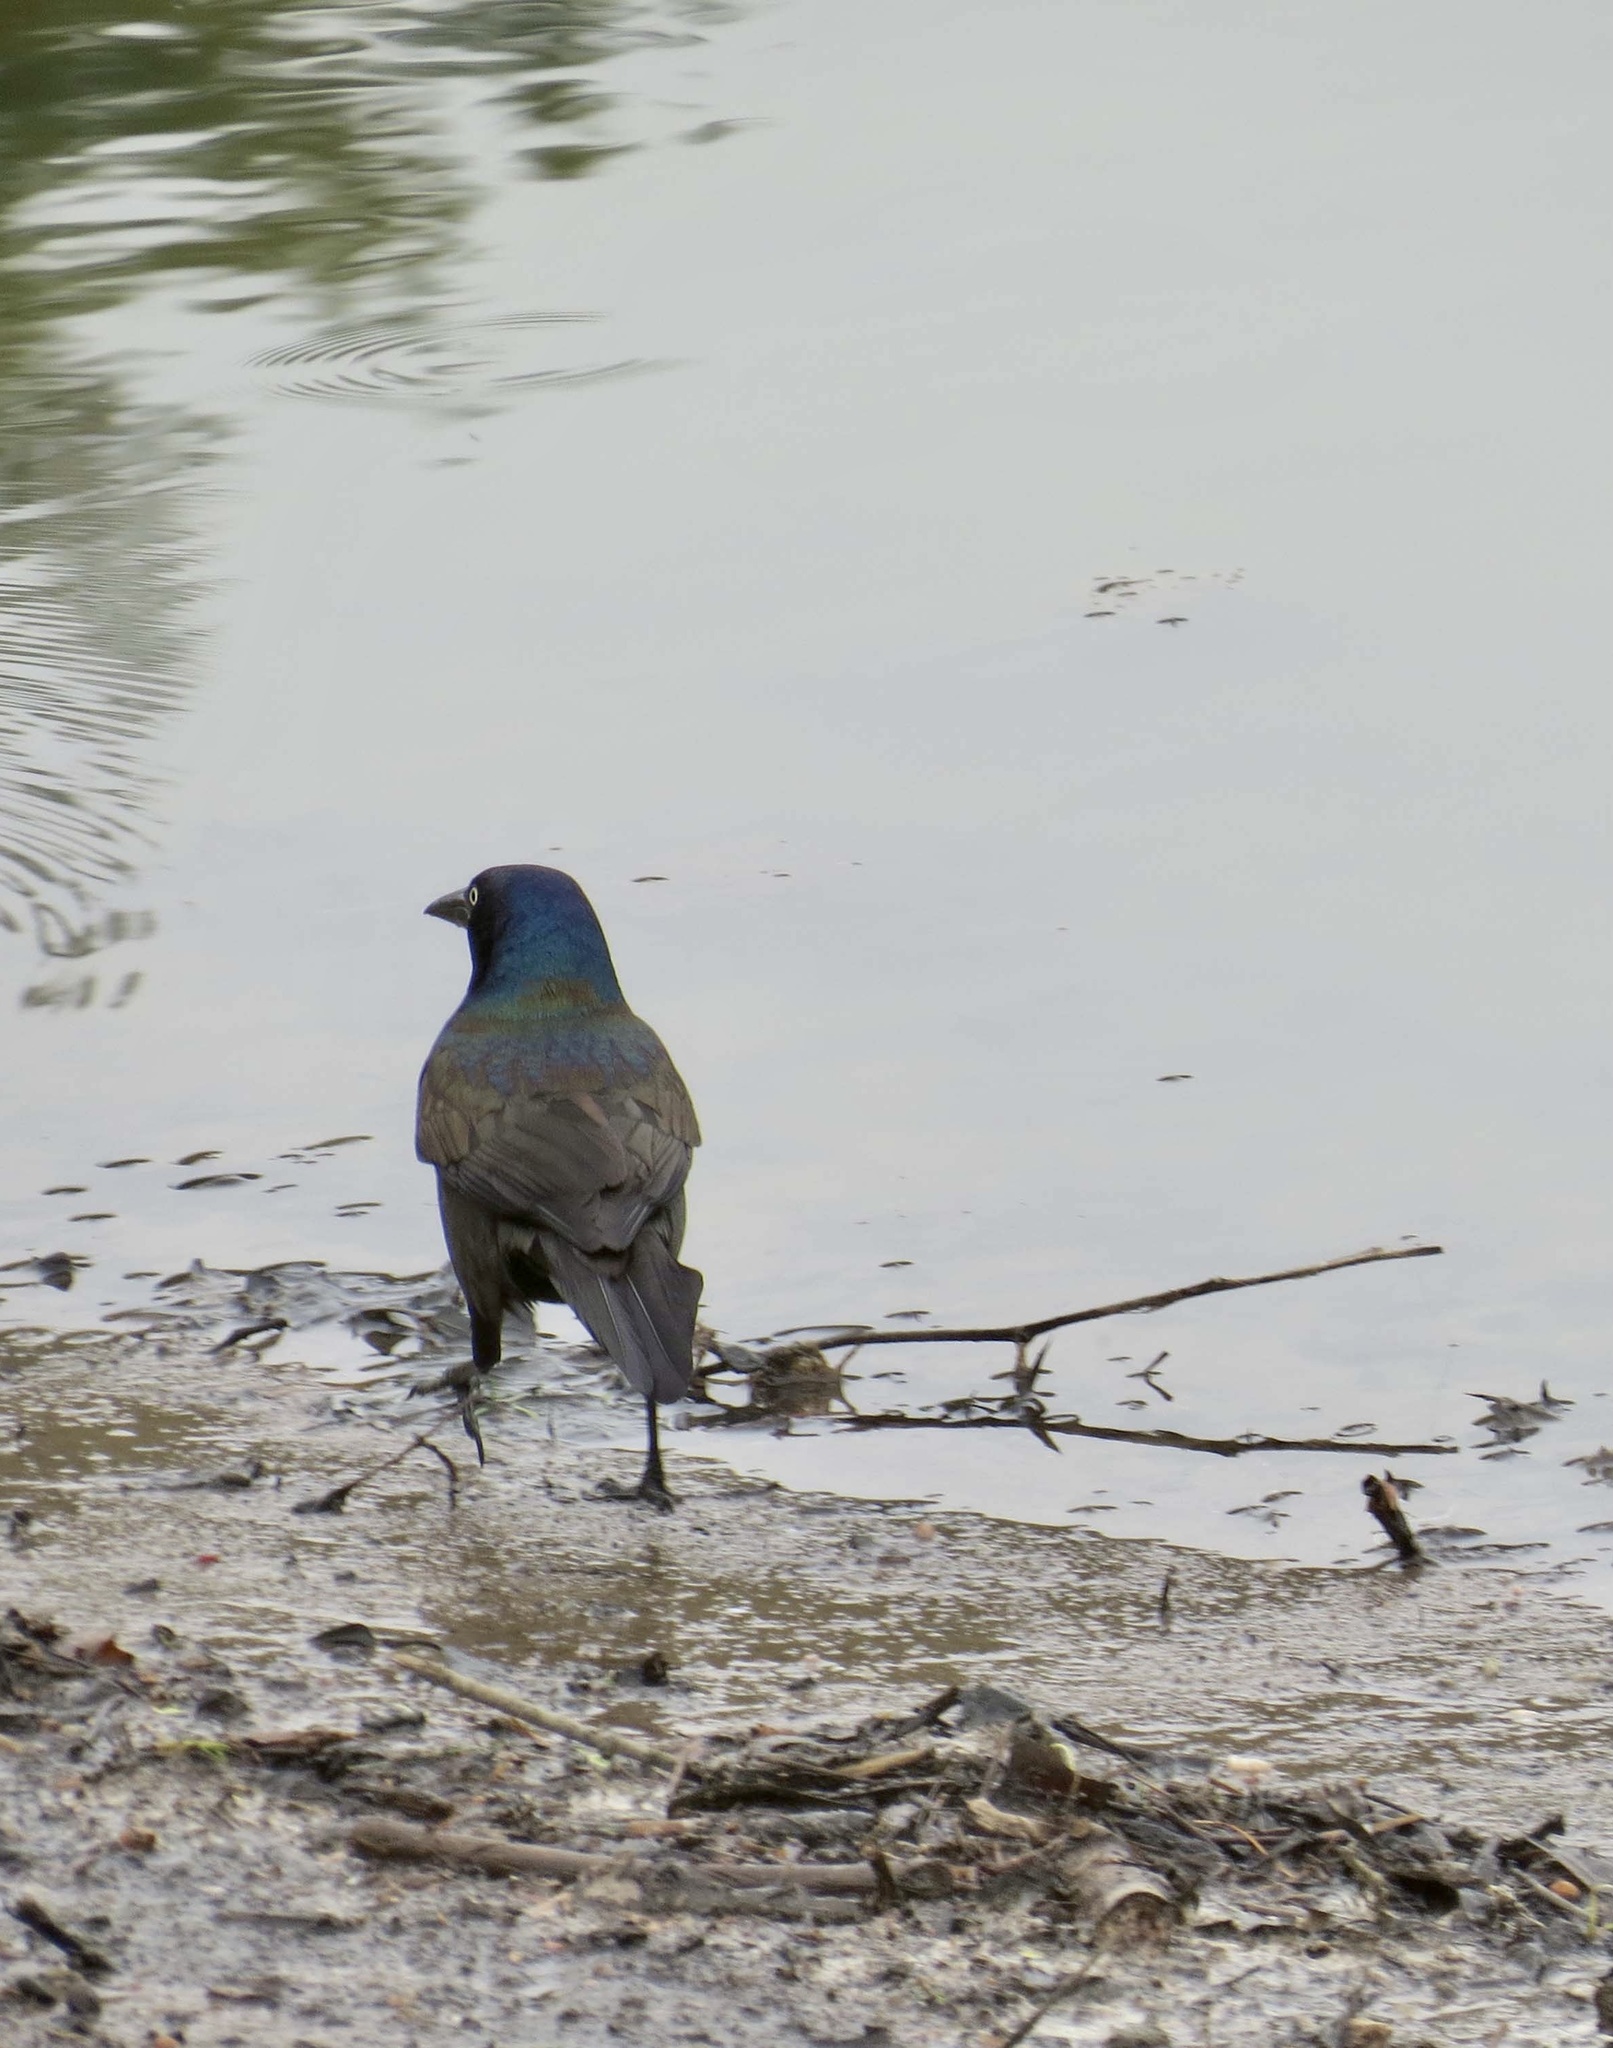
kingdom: Animalia
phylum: Chordata
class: Aves
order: Passeriformes
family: Icteridae
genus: Quiscalus
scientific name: Quiscalus quiscula
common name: Common grackle
